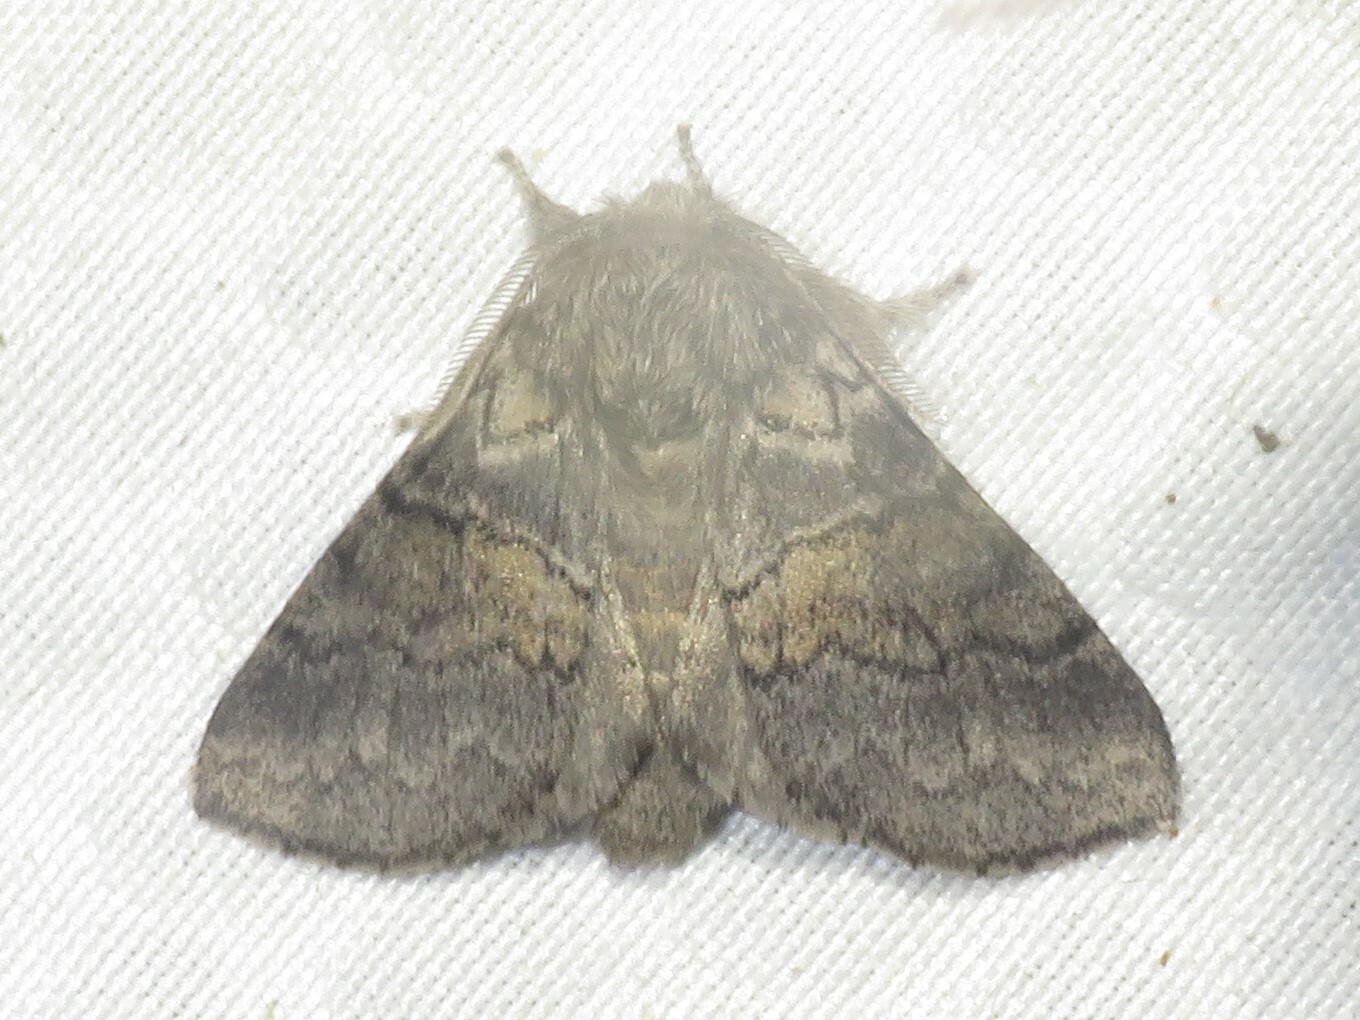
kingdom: Animalia
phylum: Arthropoda
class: Insecta
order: Lepidoptera
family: Notodontidae
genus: Gluphisia
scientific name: Gluphisia septentrionis
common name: Common gluphisia
